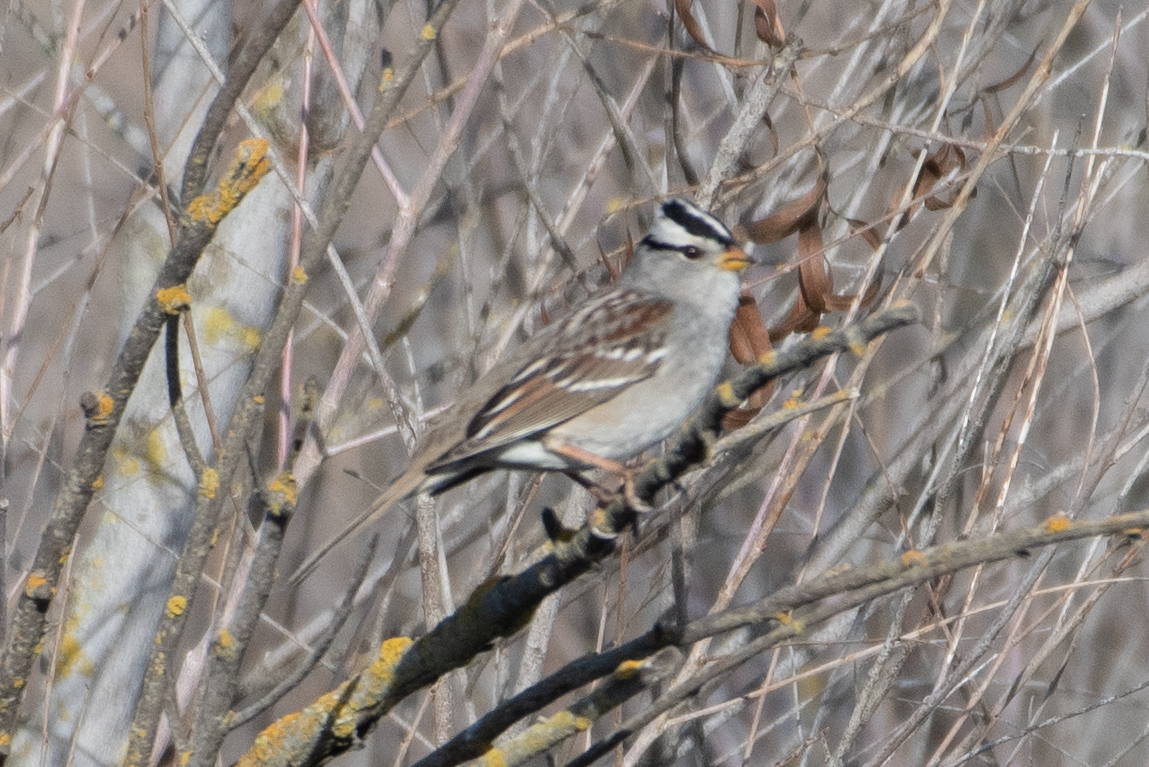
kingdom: Animalia
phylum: Chordata
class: Aves
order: Passeriformes
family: Passerellidae
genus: Zonotrichia
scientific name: Zonotrichia leucophrys
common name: White-crowned sparrow
